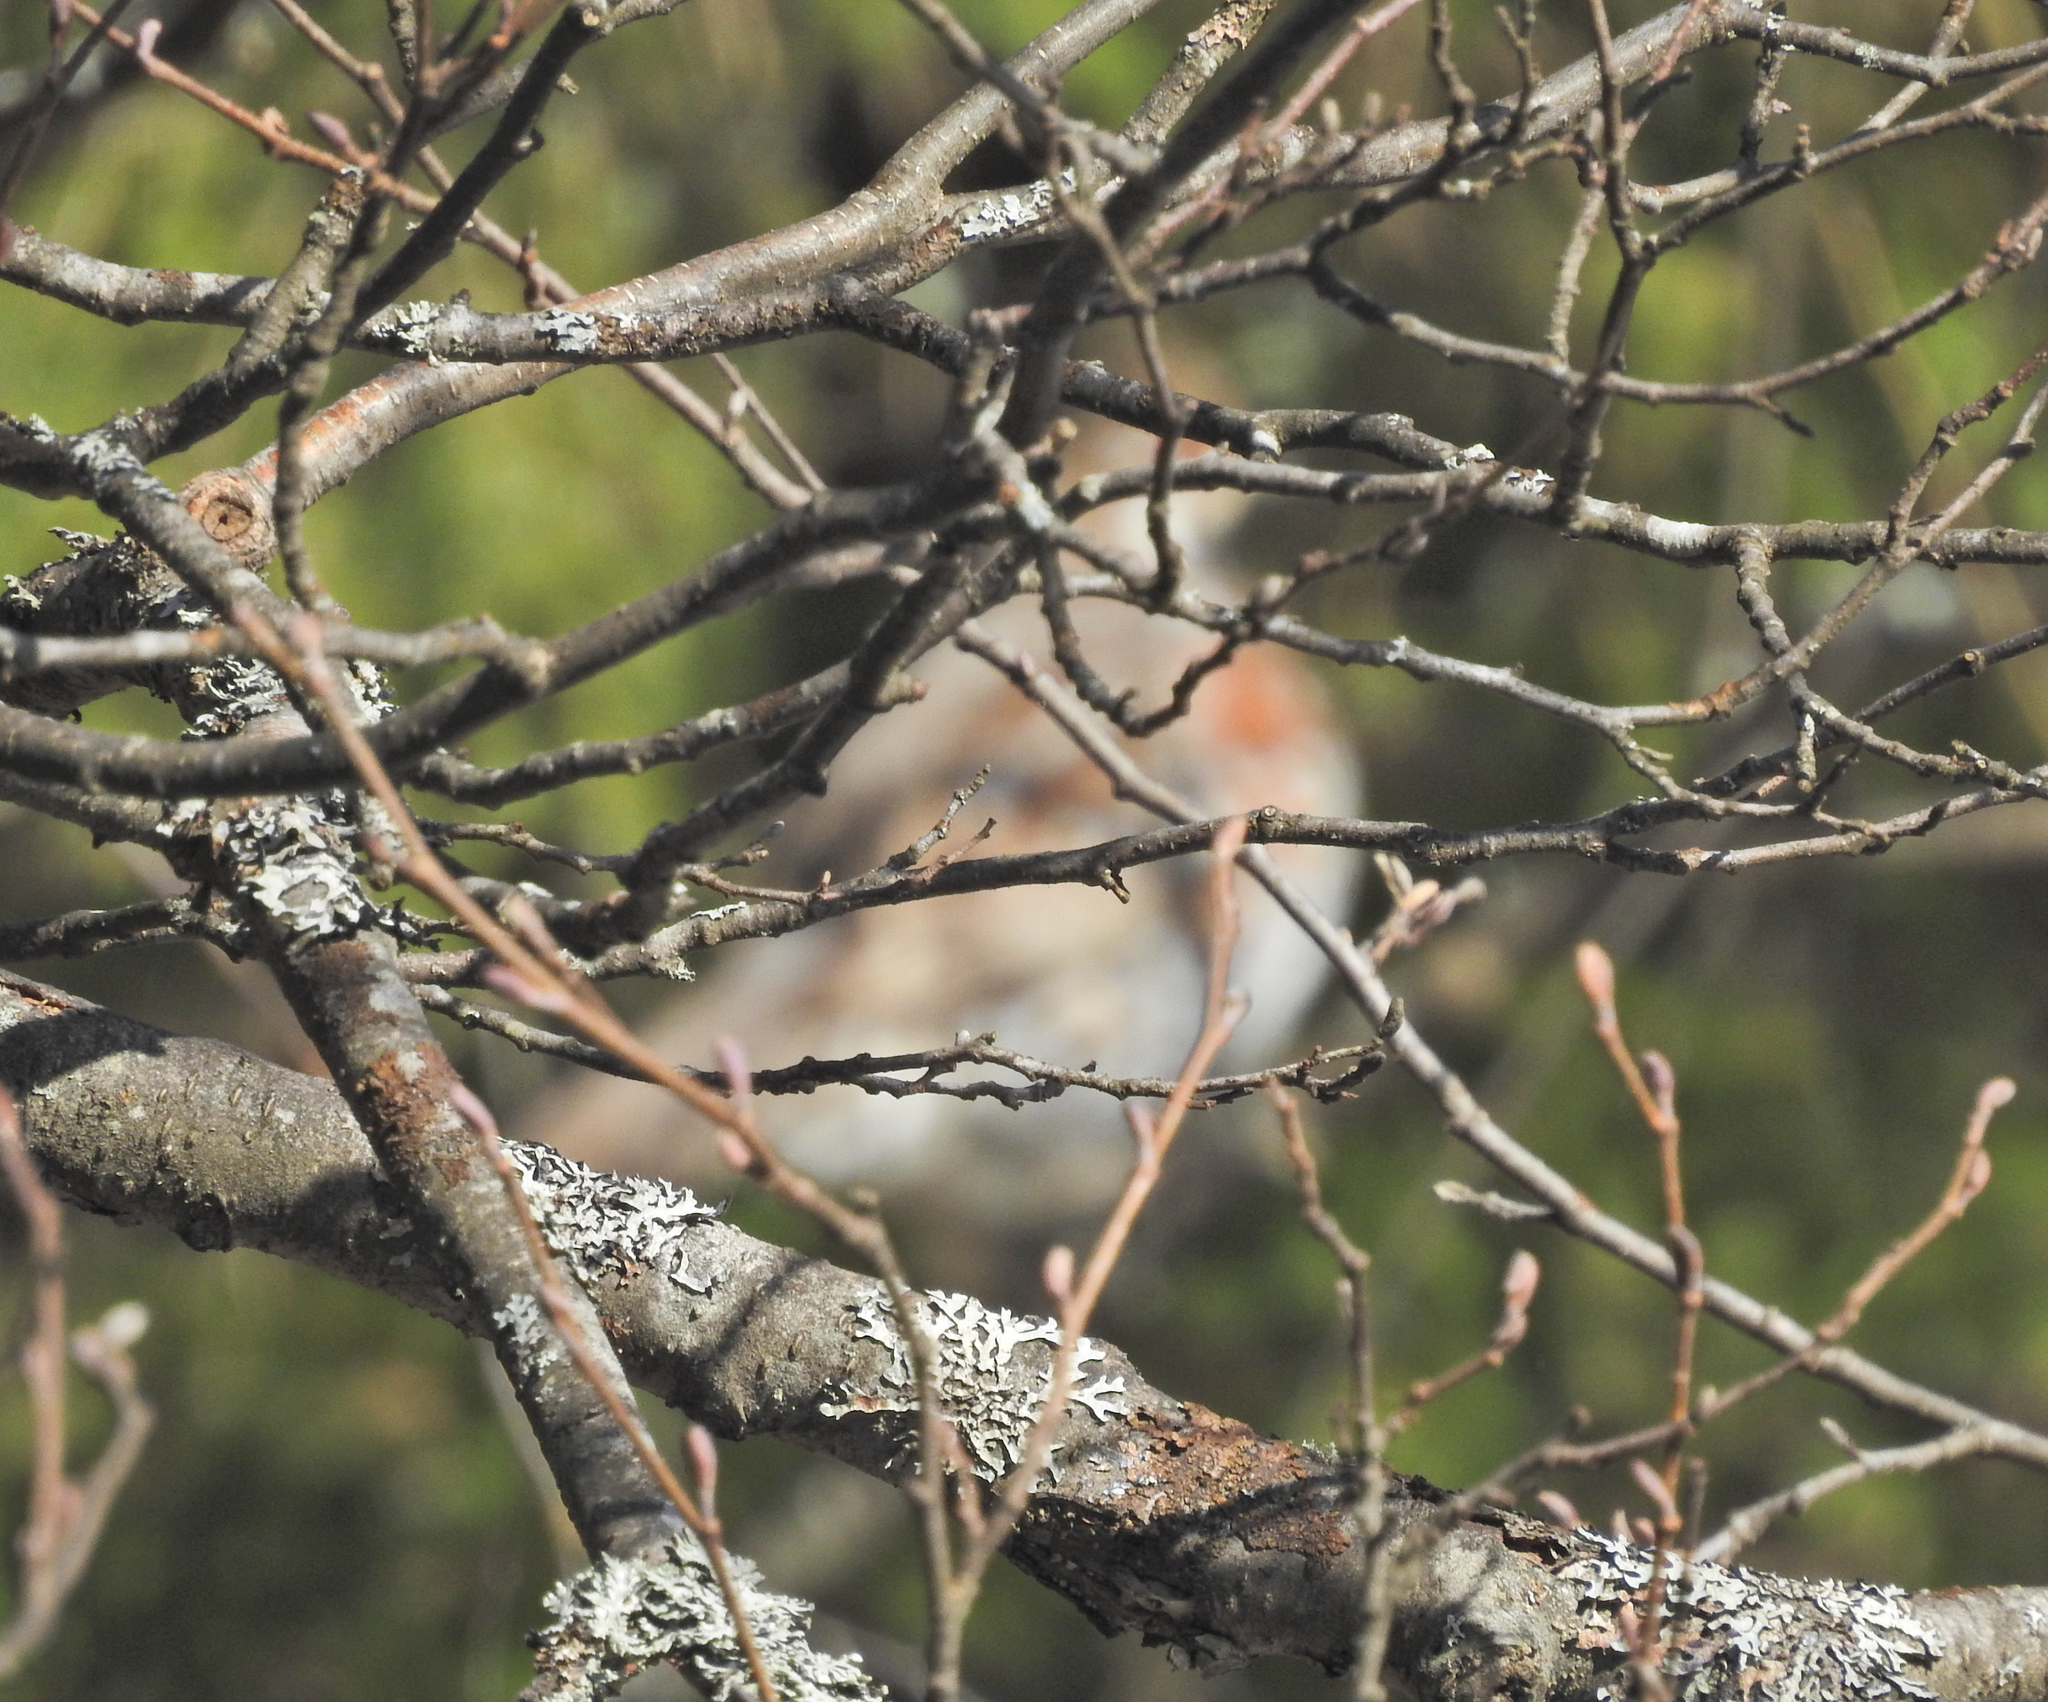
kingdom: Animalia
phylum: Chordata
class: Aves
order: Galliformes
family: Phasianidae
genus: Tetrastes
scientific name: Tetrastes bonasia
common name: Hazel grouse
